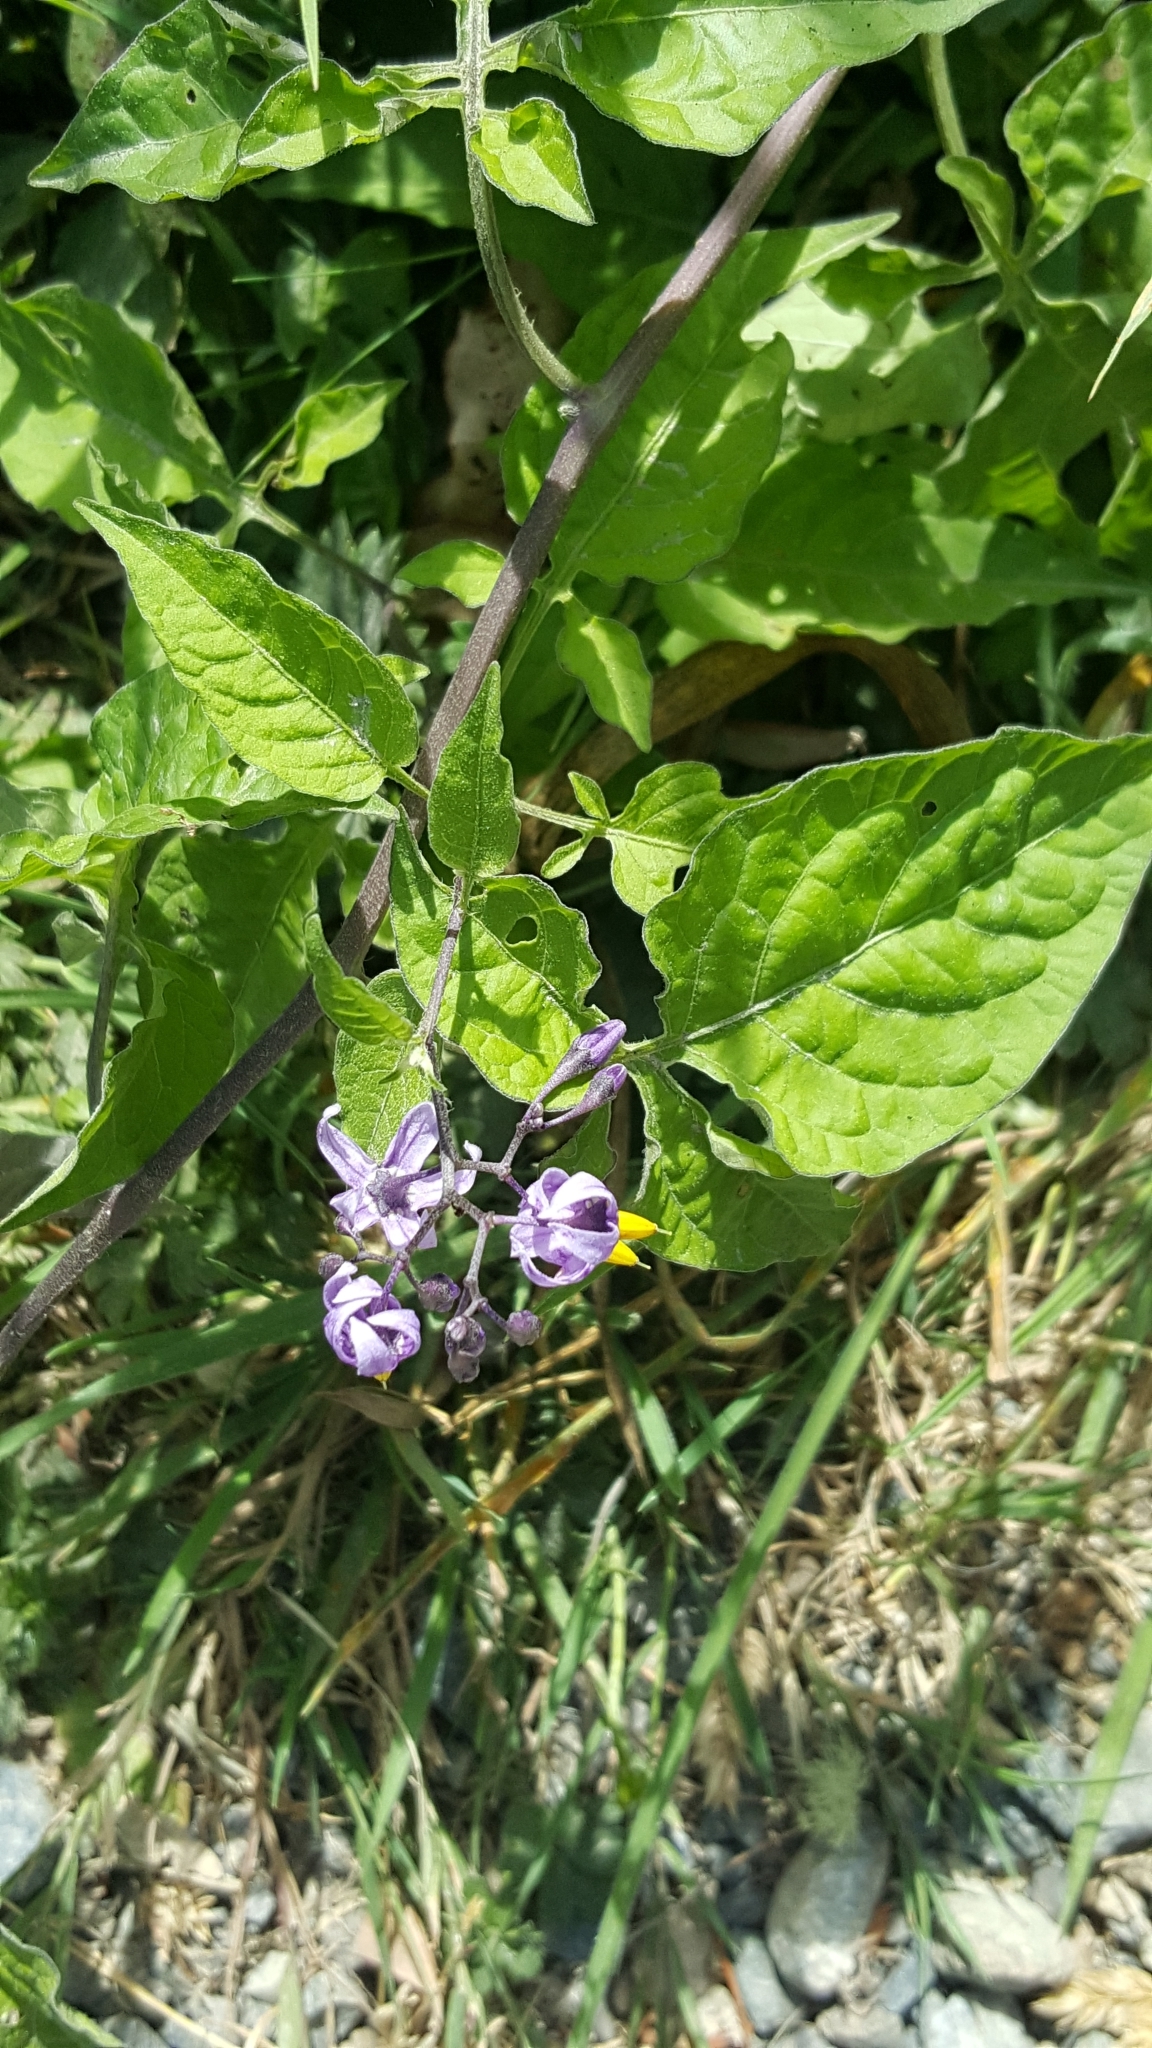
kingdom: Plantae
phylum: Tracheophyta
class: Magnoliopsida
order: Solanales
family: Solanaceae
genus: Solanum
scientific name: Solanum dulcamara
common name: Climbing nightshade
